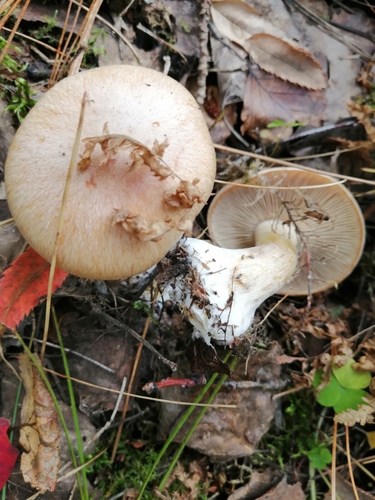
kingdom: Fungi
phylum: Basidiomycota
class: Agaricomycetes
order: Agaricales
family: Cortinariaceae
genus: Cortinarius
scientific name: Cortinarius
